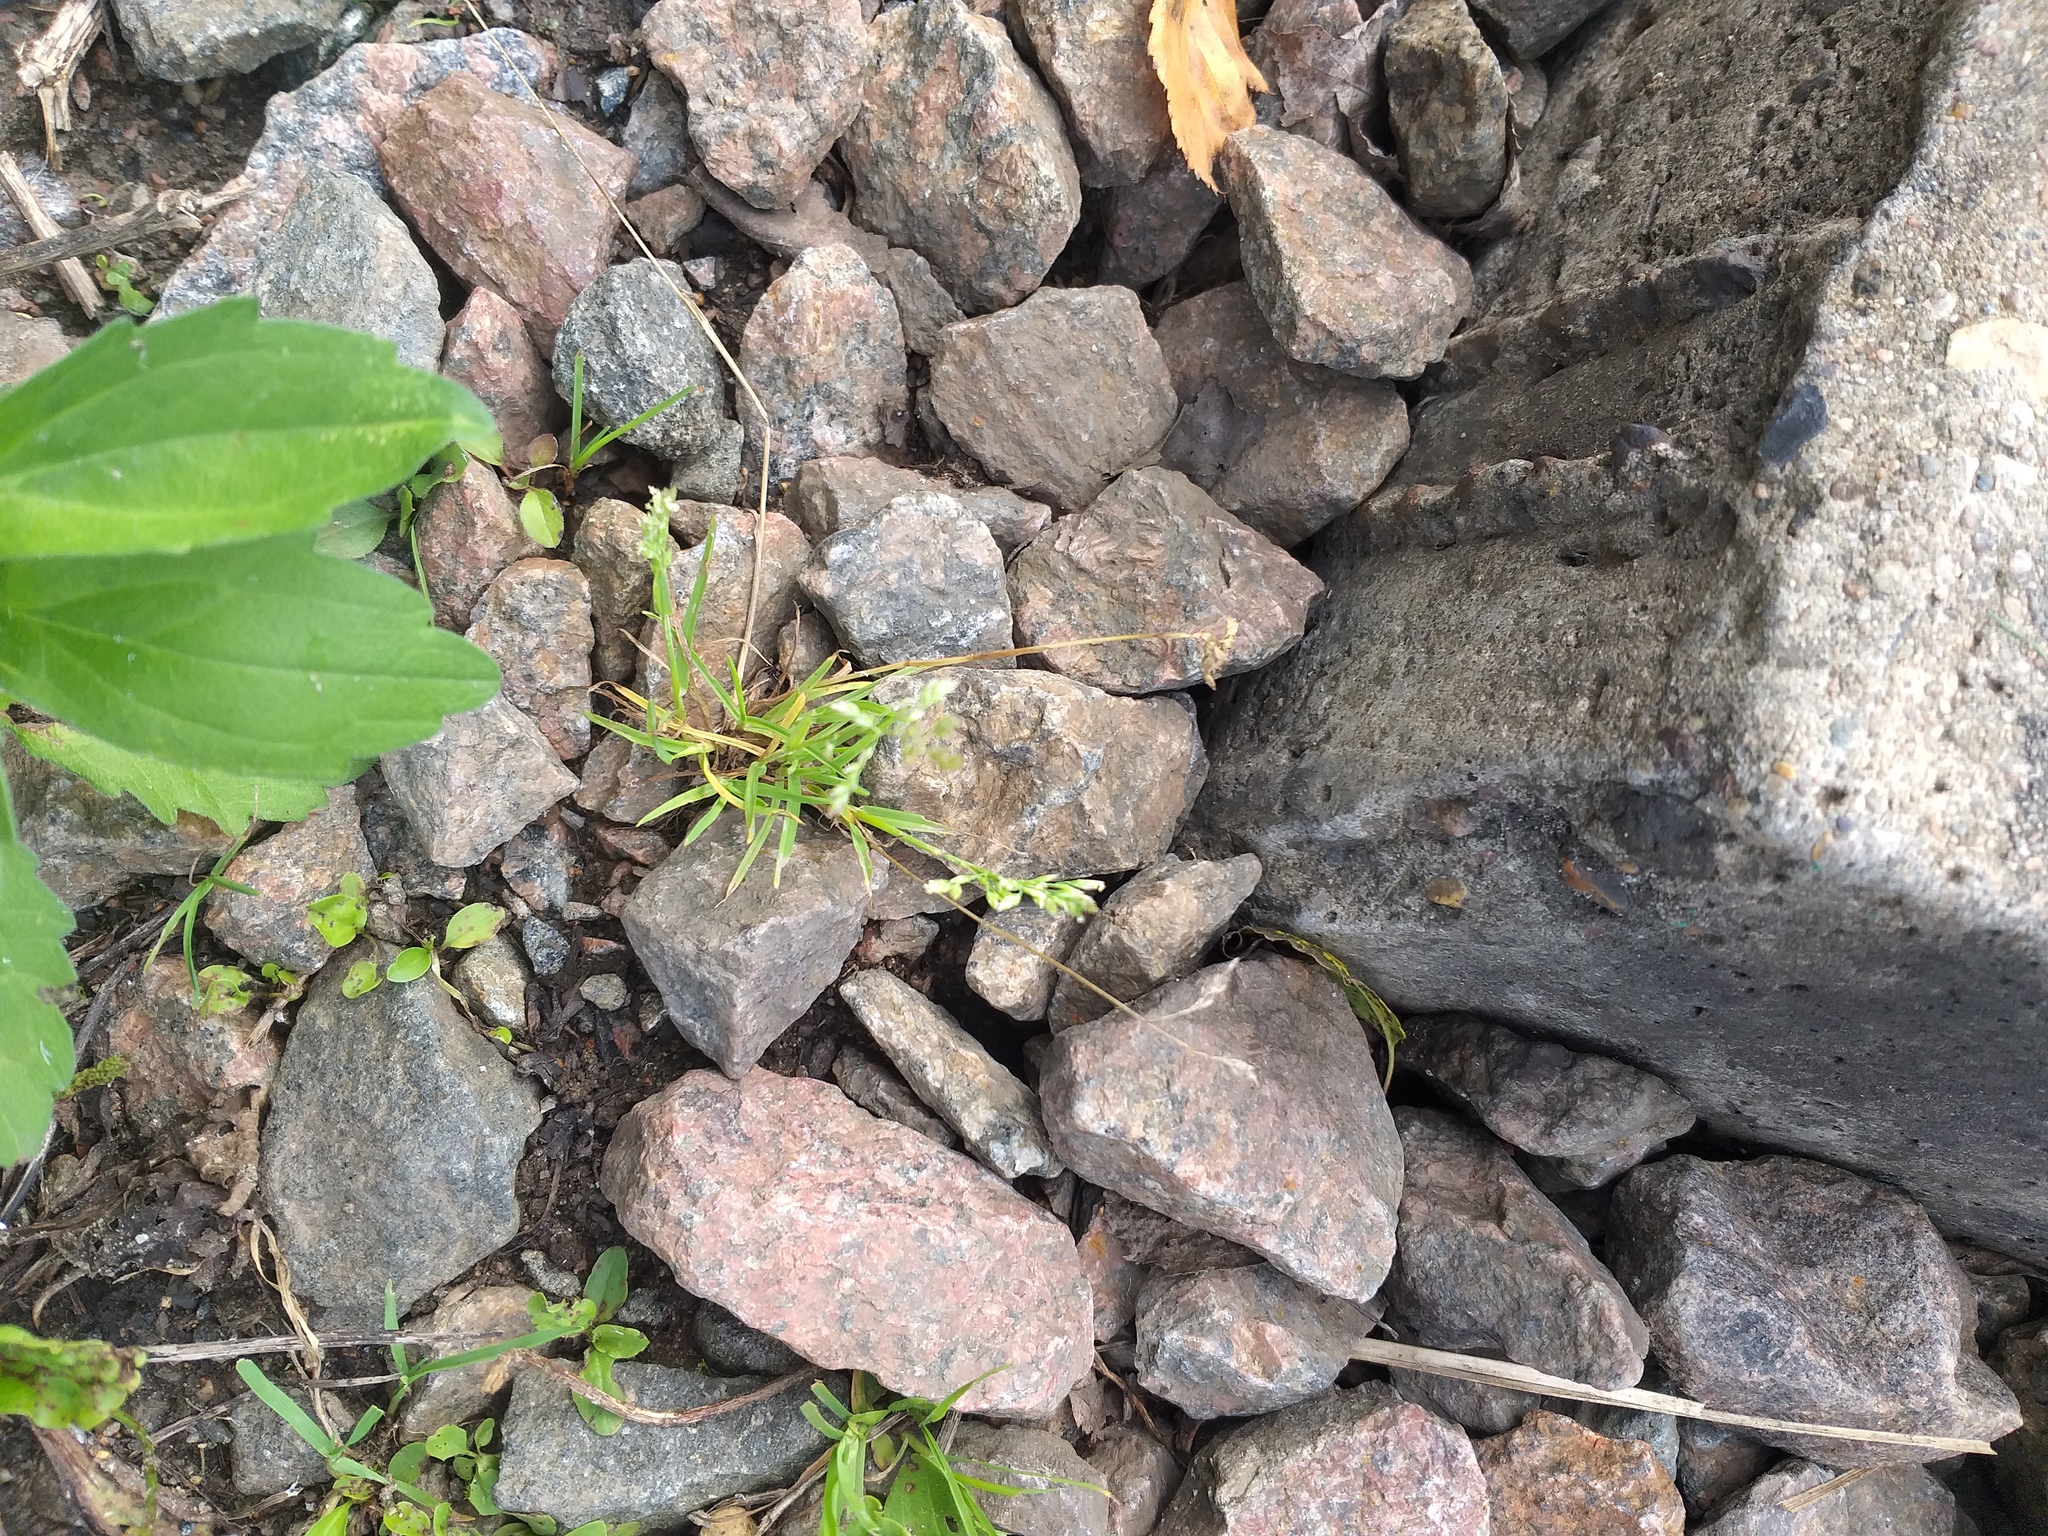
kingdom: Plantae
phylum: Tracheophyta
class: Liliopsida
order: Poales
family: Poaceae
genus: Poa
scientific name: Poa annua
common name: Annual bluegrass
